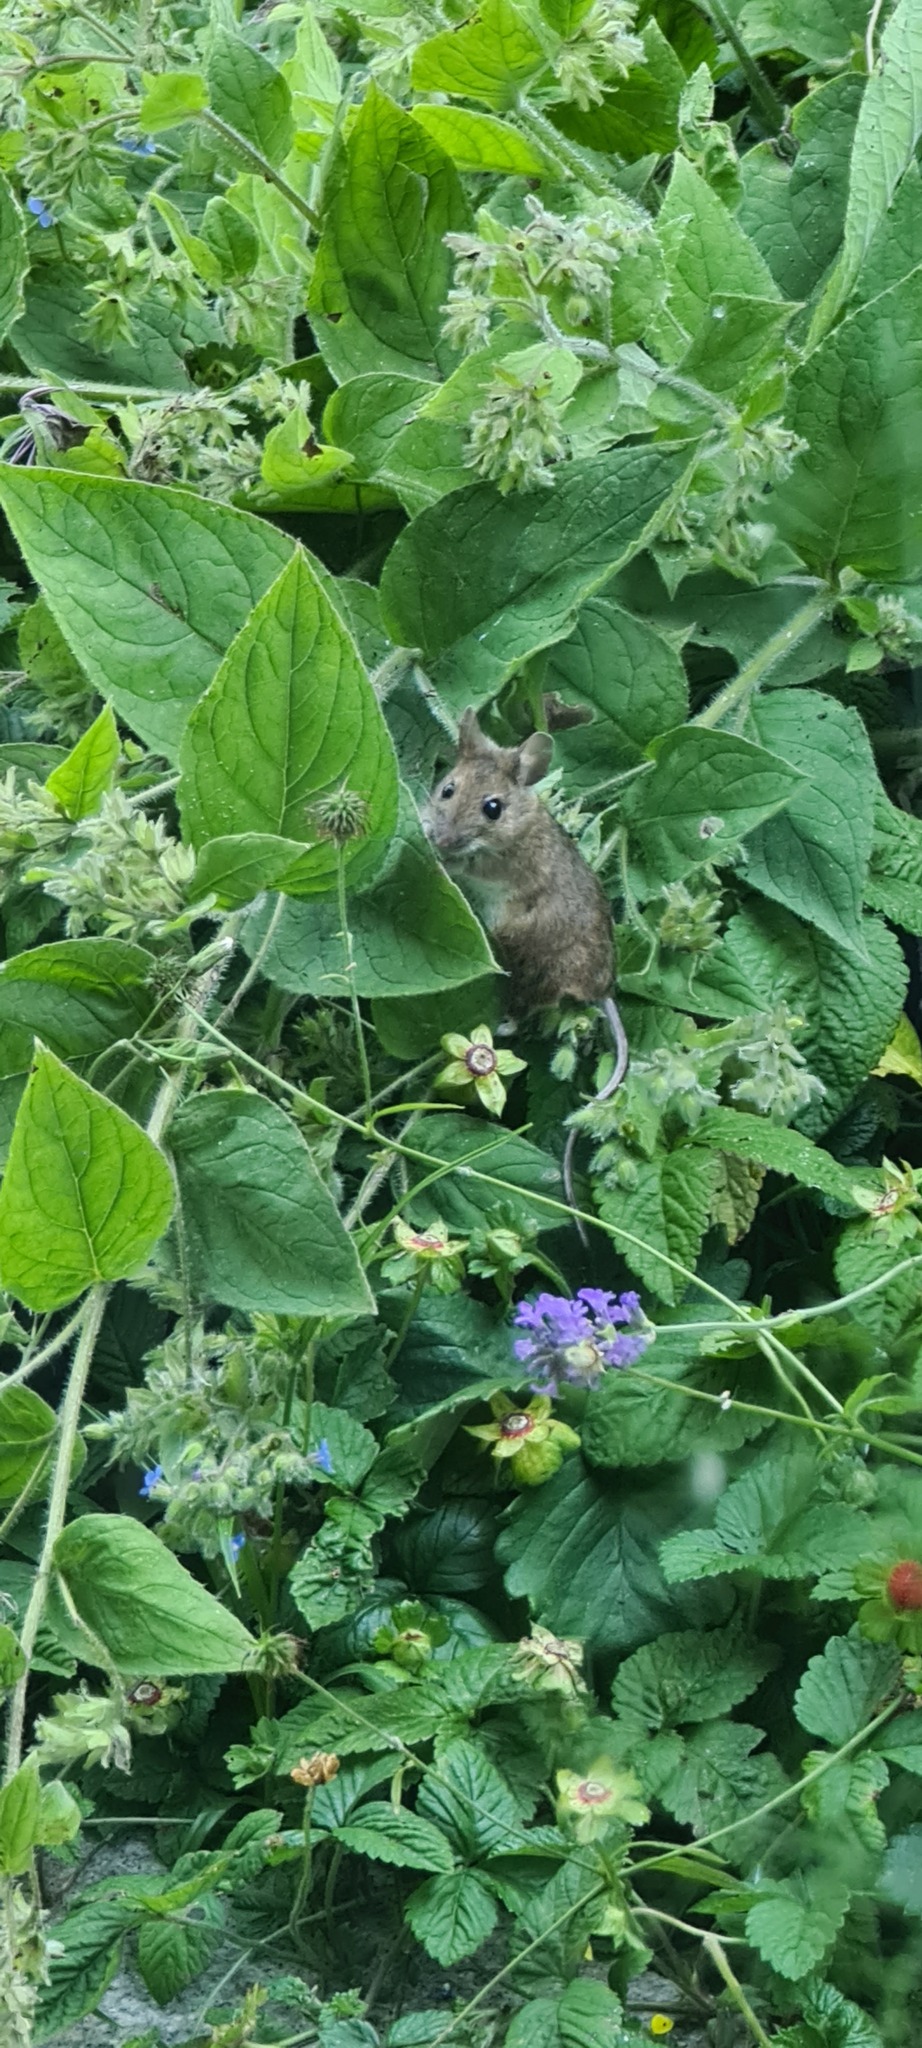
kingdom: Animalia
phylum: Chordata
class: Mammalia
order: Rodentia
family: Muridae
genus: Apodemus
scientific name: Apodemus sylvaticus
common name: Wood mouse
